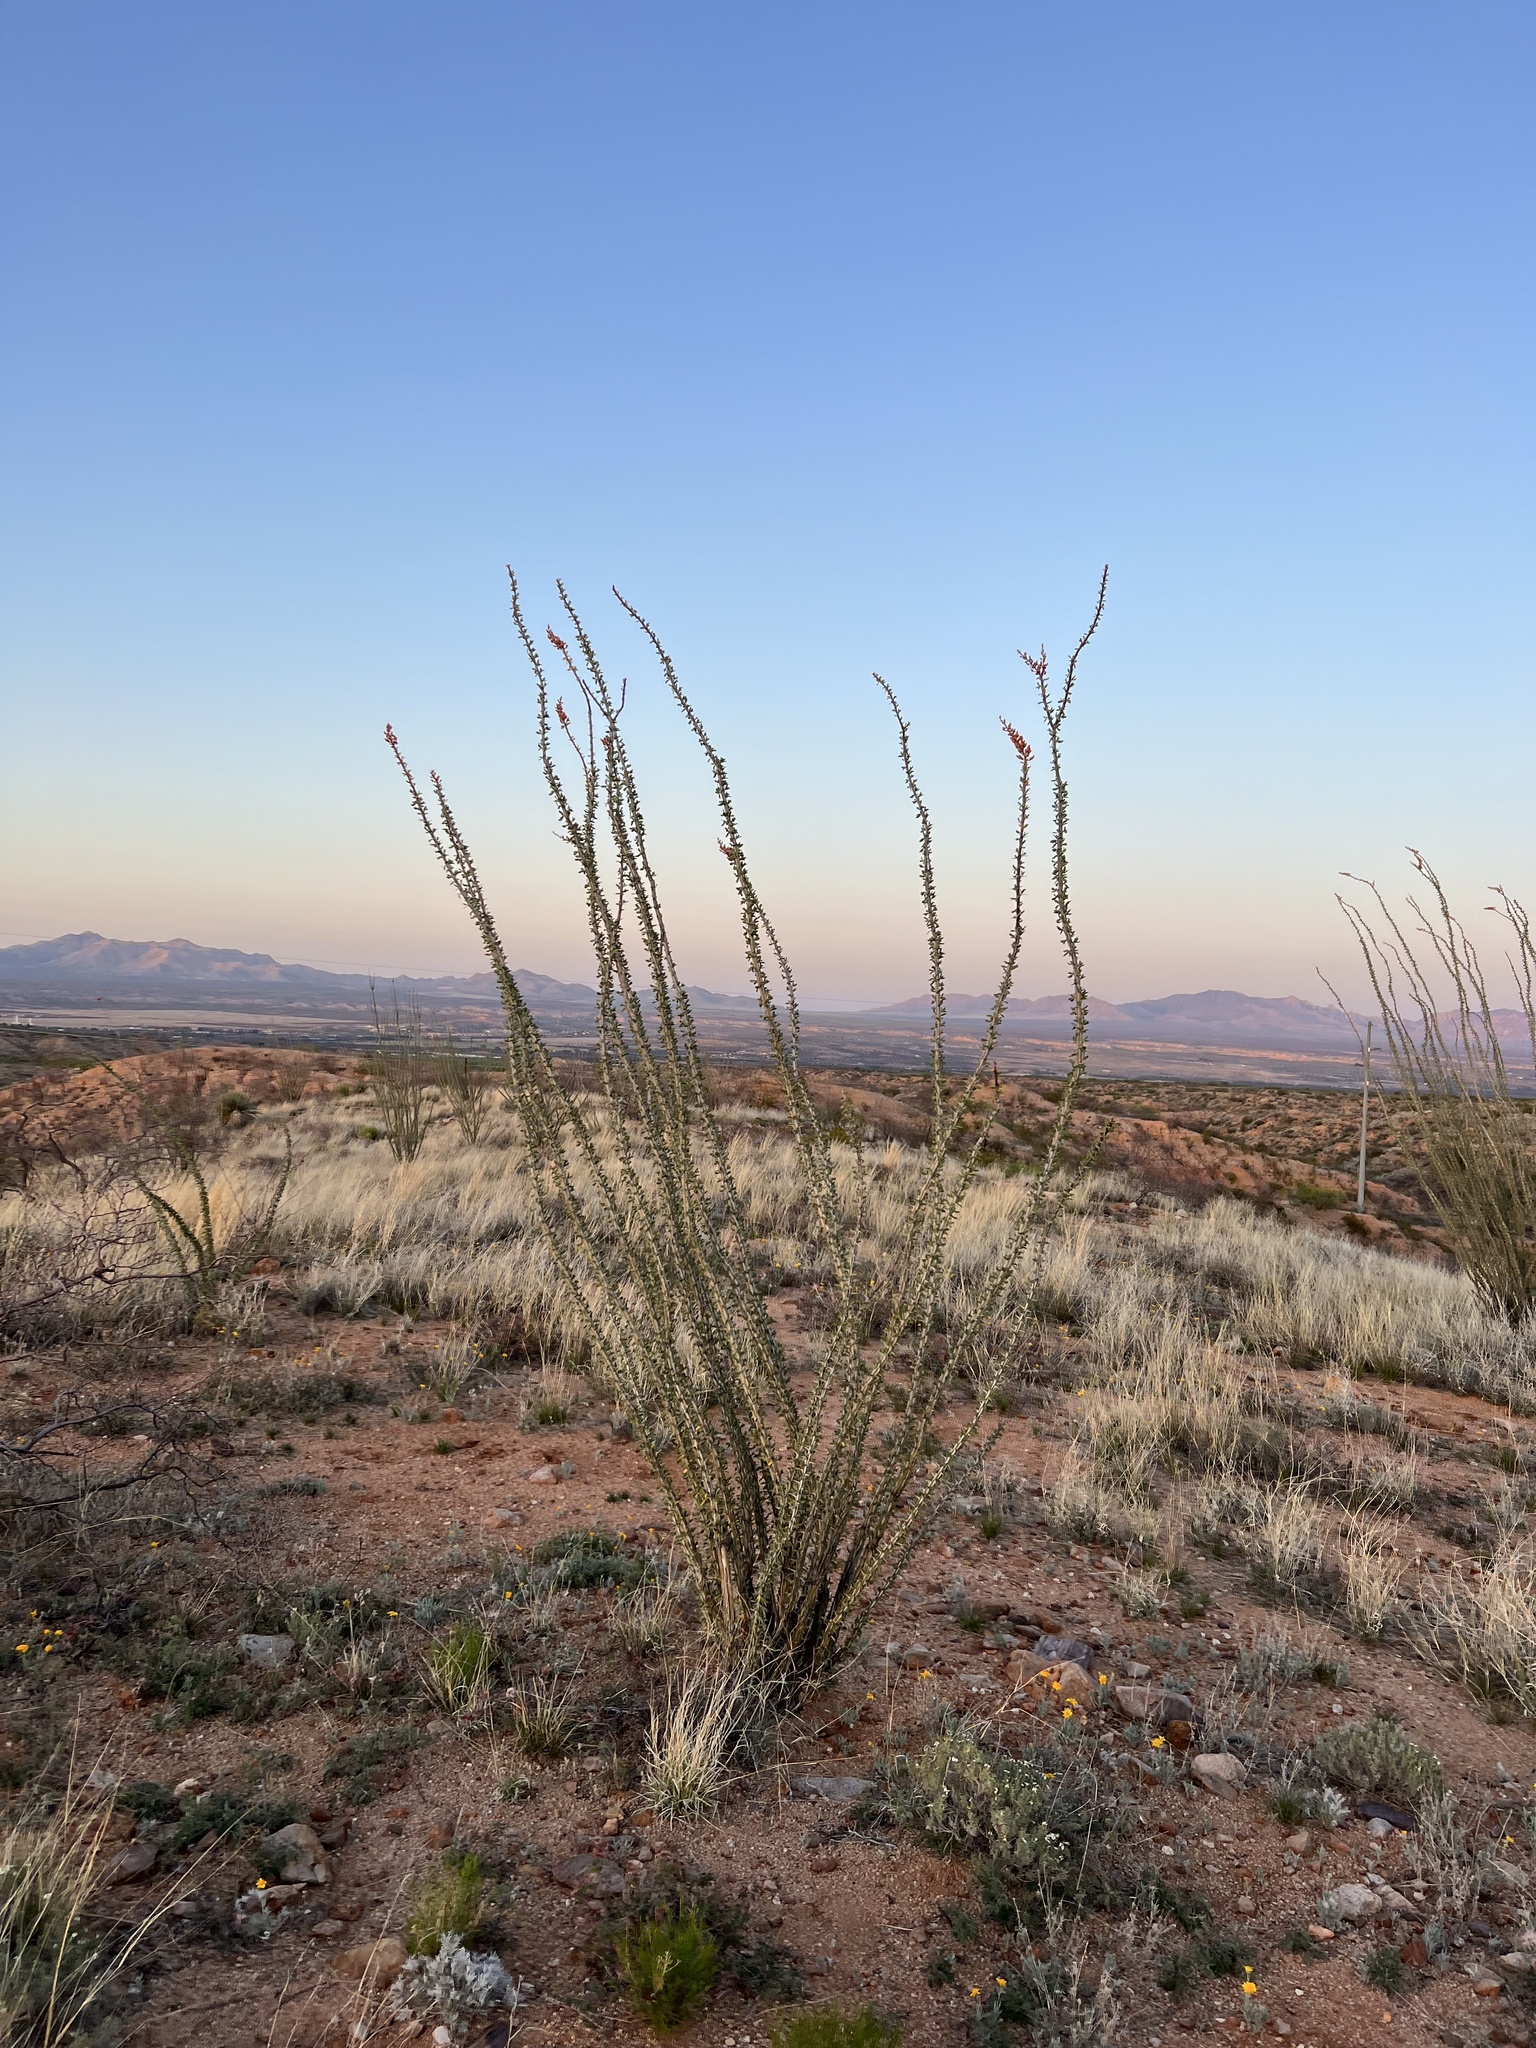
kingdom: Plantae
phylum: Tracheophyta
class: Magnoliopsida
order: Ericales
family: Fouquieriaceae
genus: Fouquieria
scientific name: Fouquieria splendens
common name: Vine-cactus
